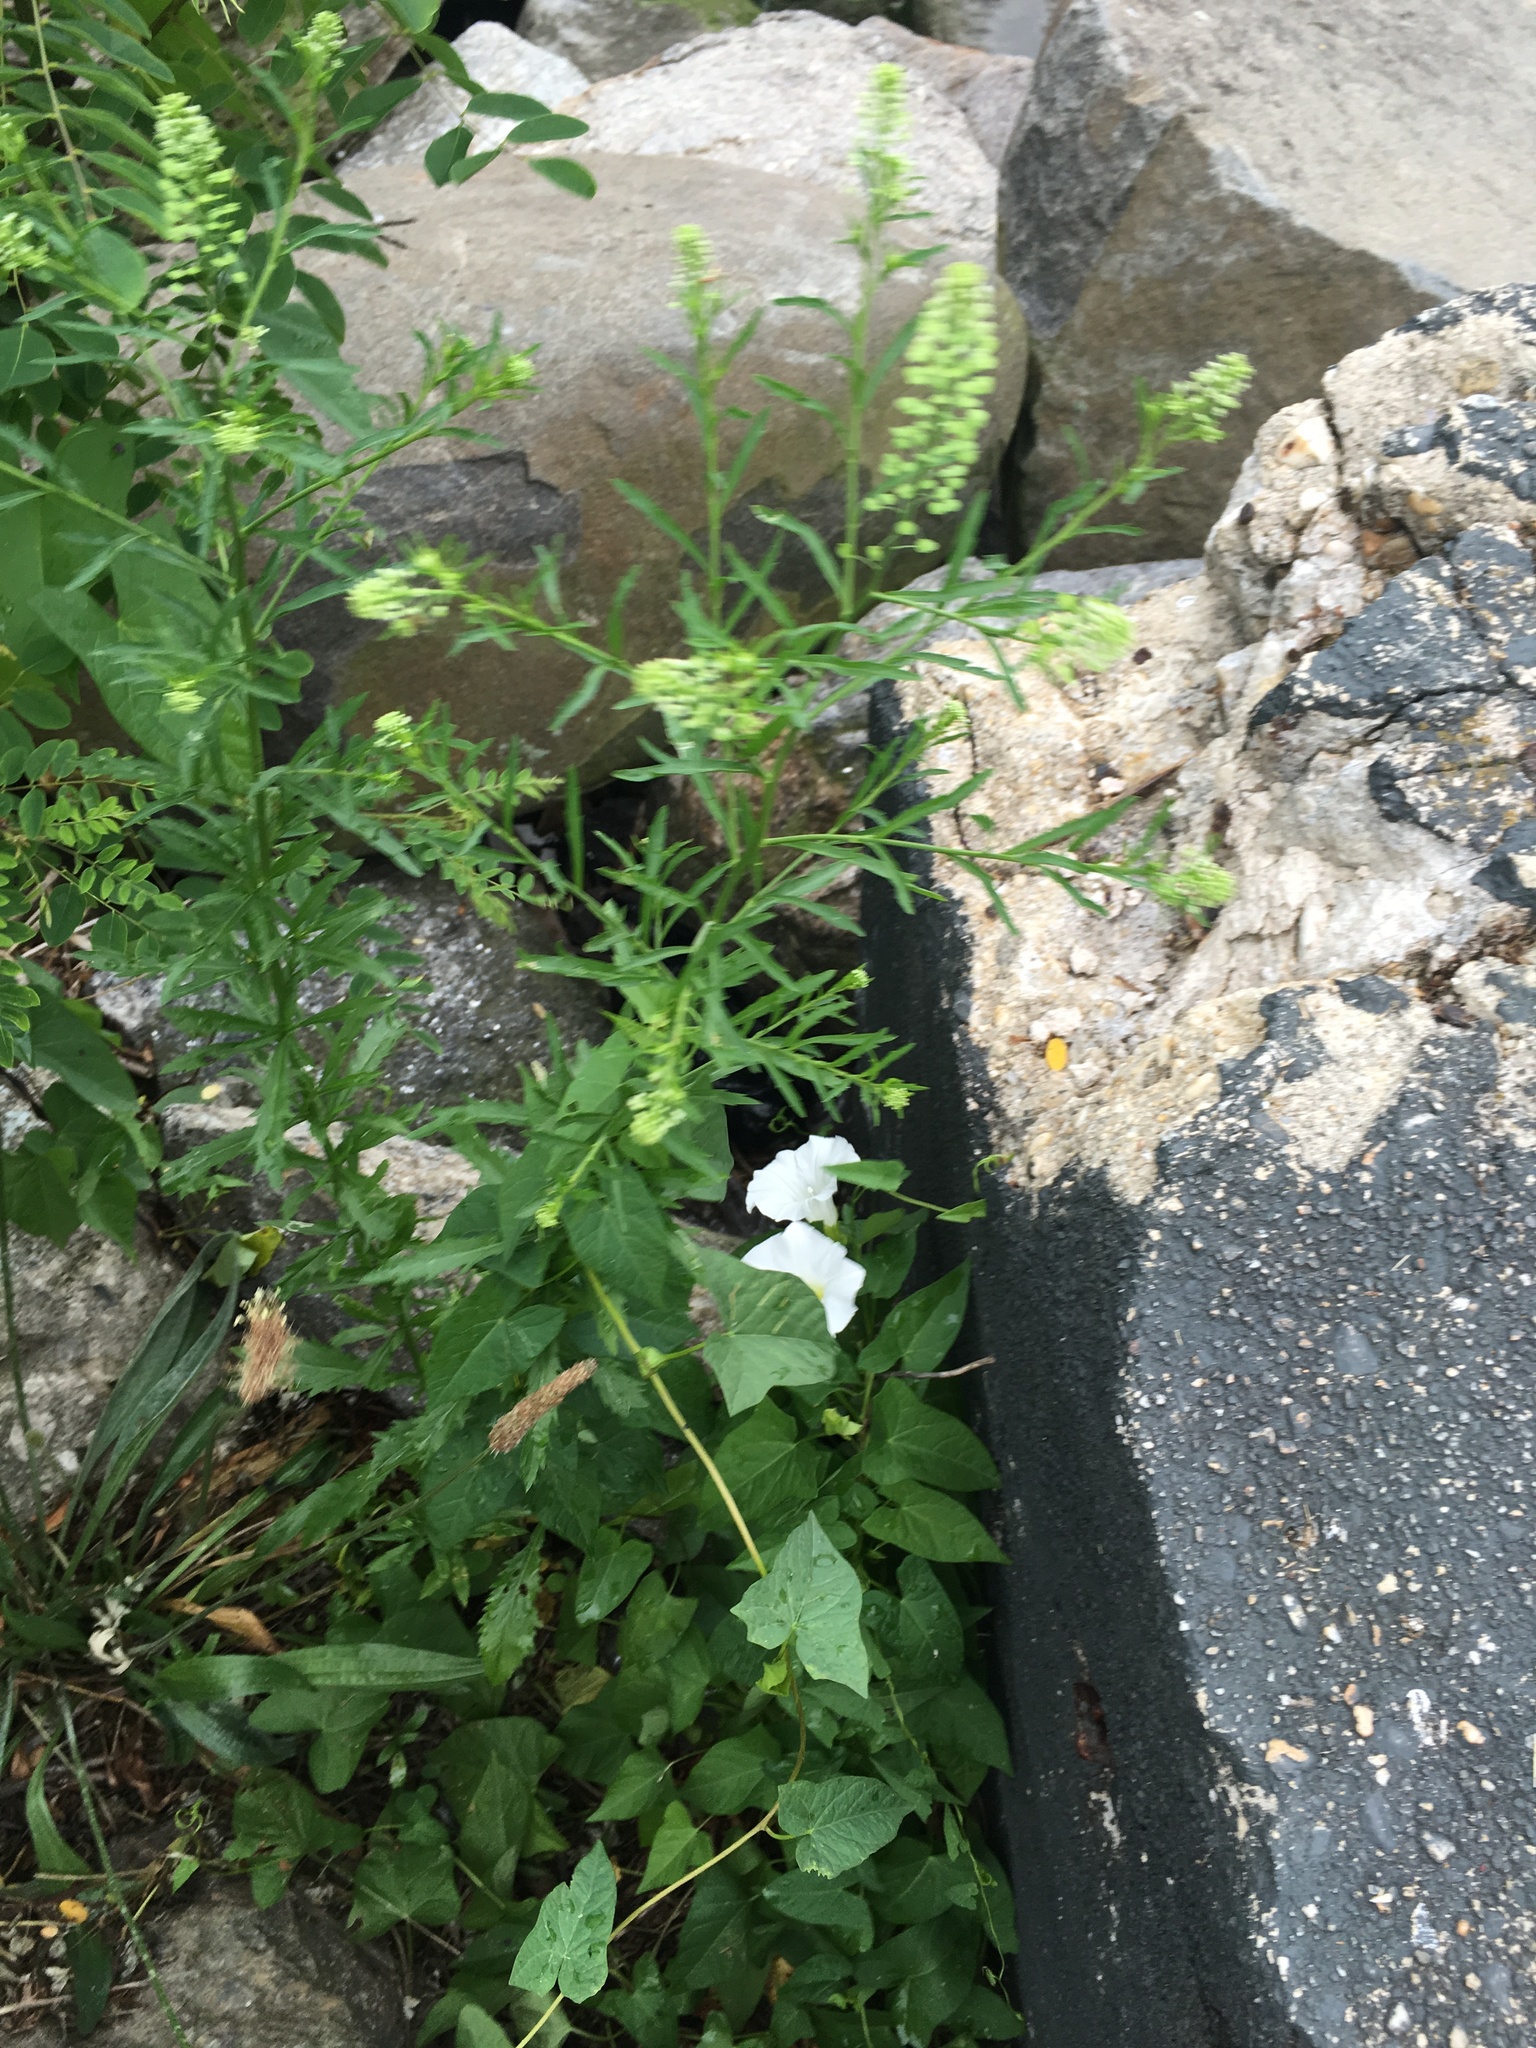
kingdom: Plantae
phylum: Tracheophyta
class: Magnoliopsida
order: Brassicales
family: Brassicaceae
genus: Lepidium
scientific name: Lepidium virginicum
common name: Least pepperwort
